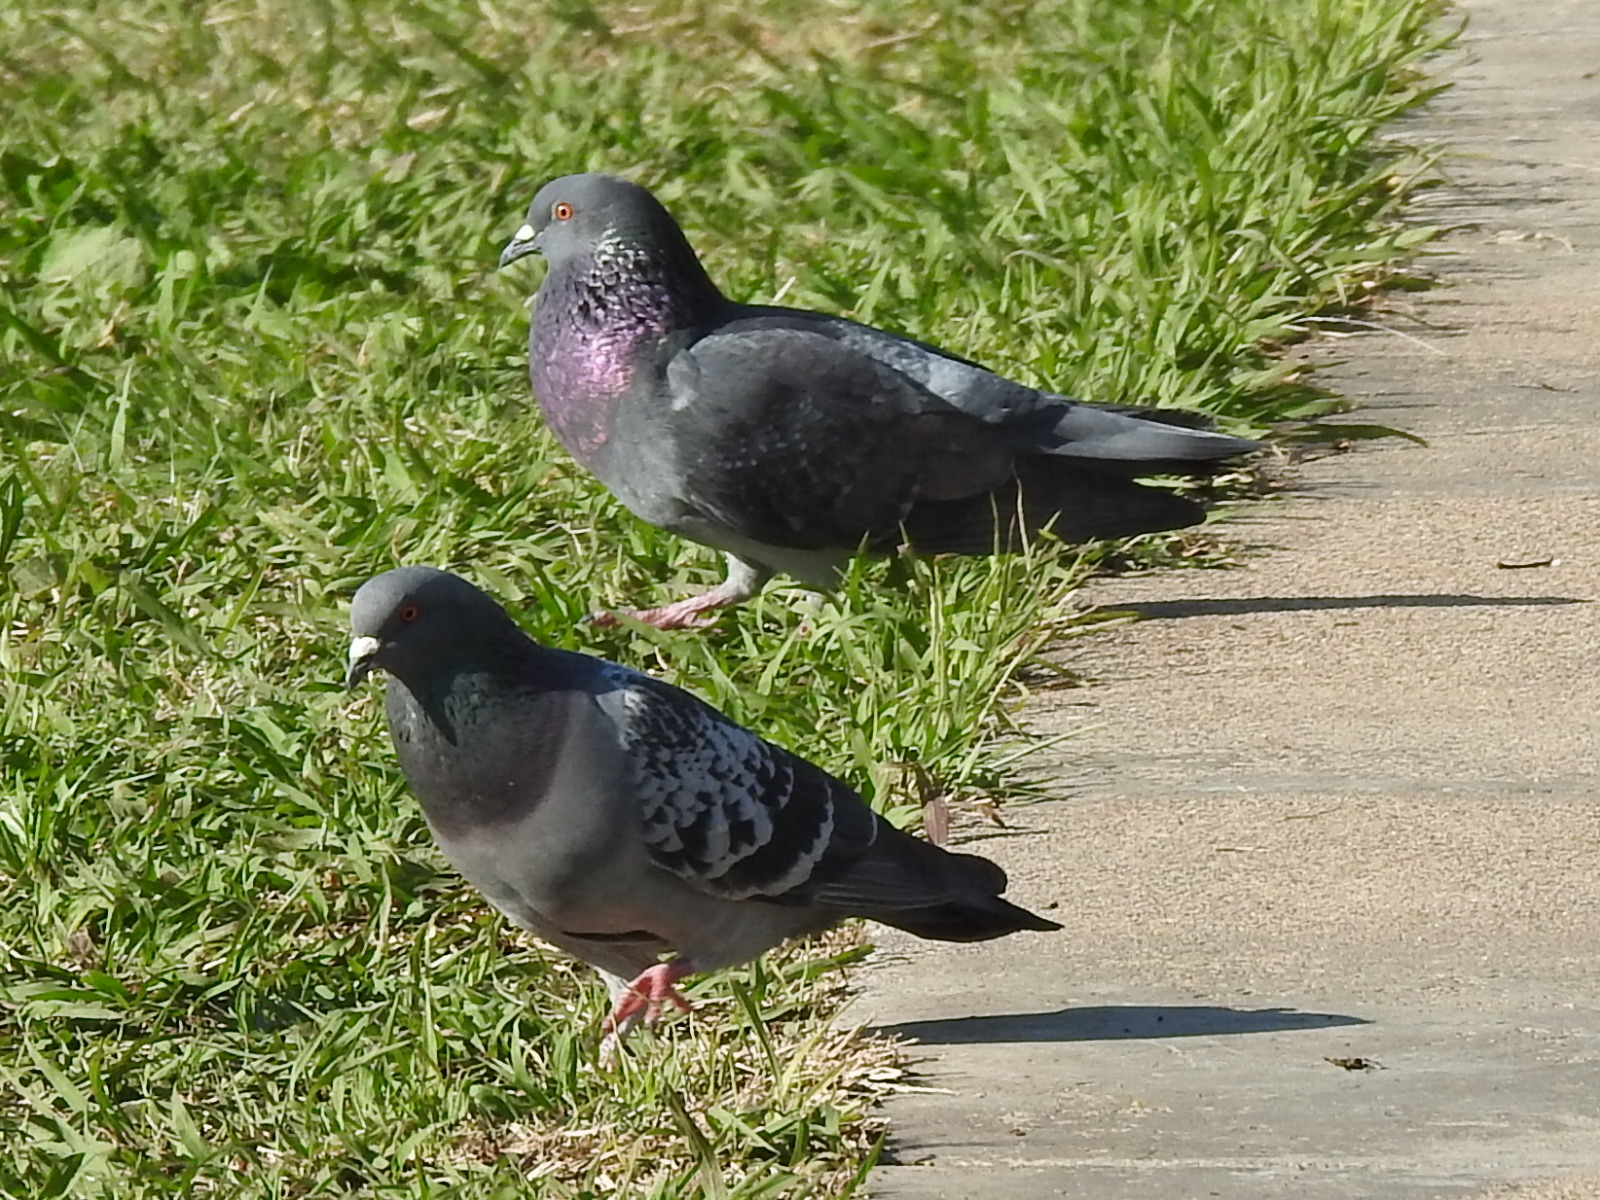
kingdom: Animalia
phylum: Chordata
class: Aves
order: Columbiformes
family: Columbidae
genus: Columba
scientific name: Columba livia
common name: Rock pigeon
